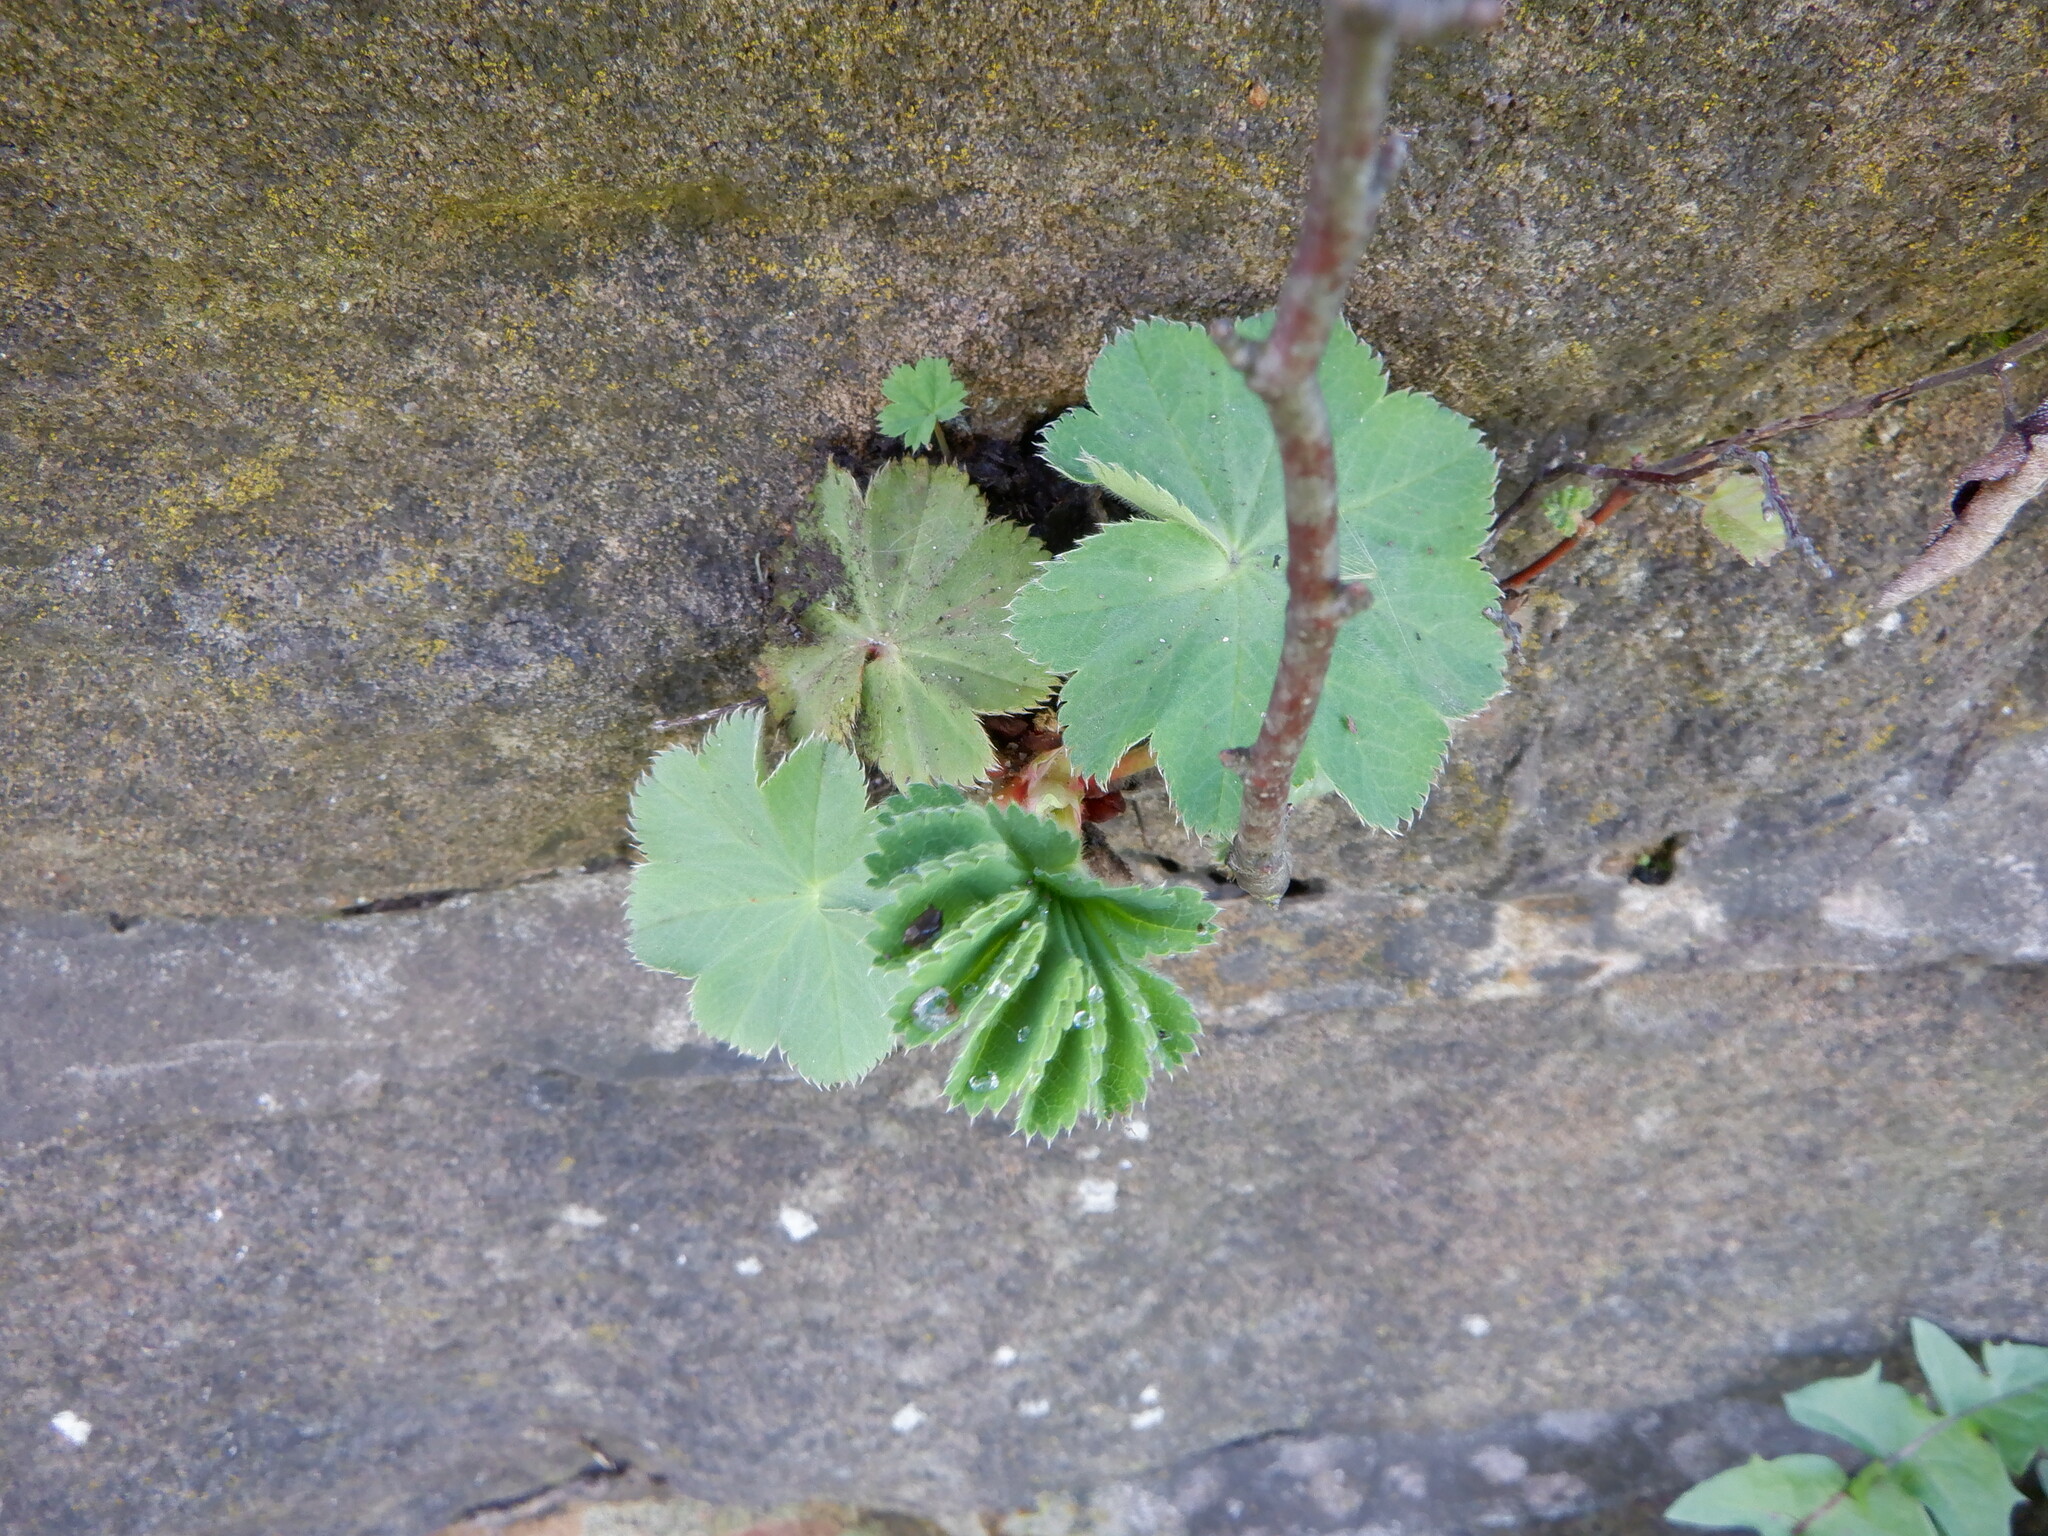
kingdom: Plantae
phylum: Tracheophyta
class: Magnoliopsida
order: Rosales
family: Rosaceae
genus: Alchemilla
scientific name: Alchemilla mollis
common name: Lady's-mantle
